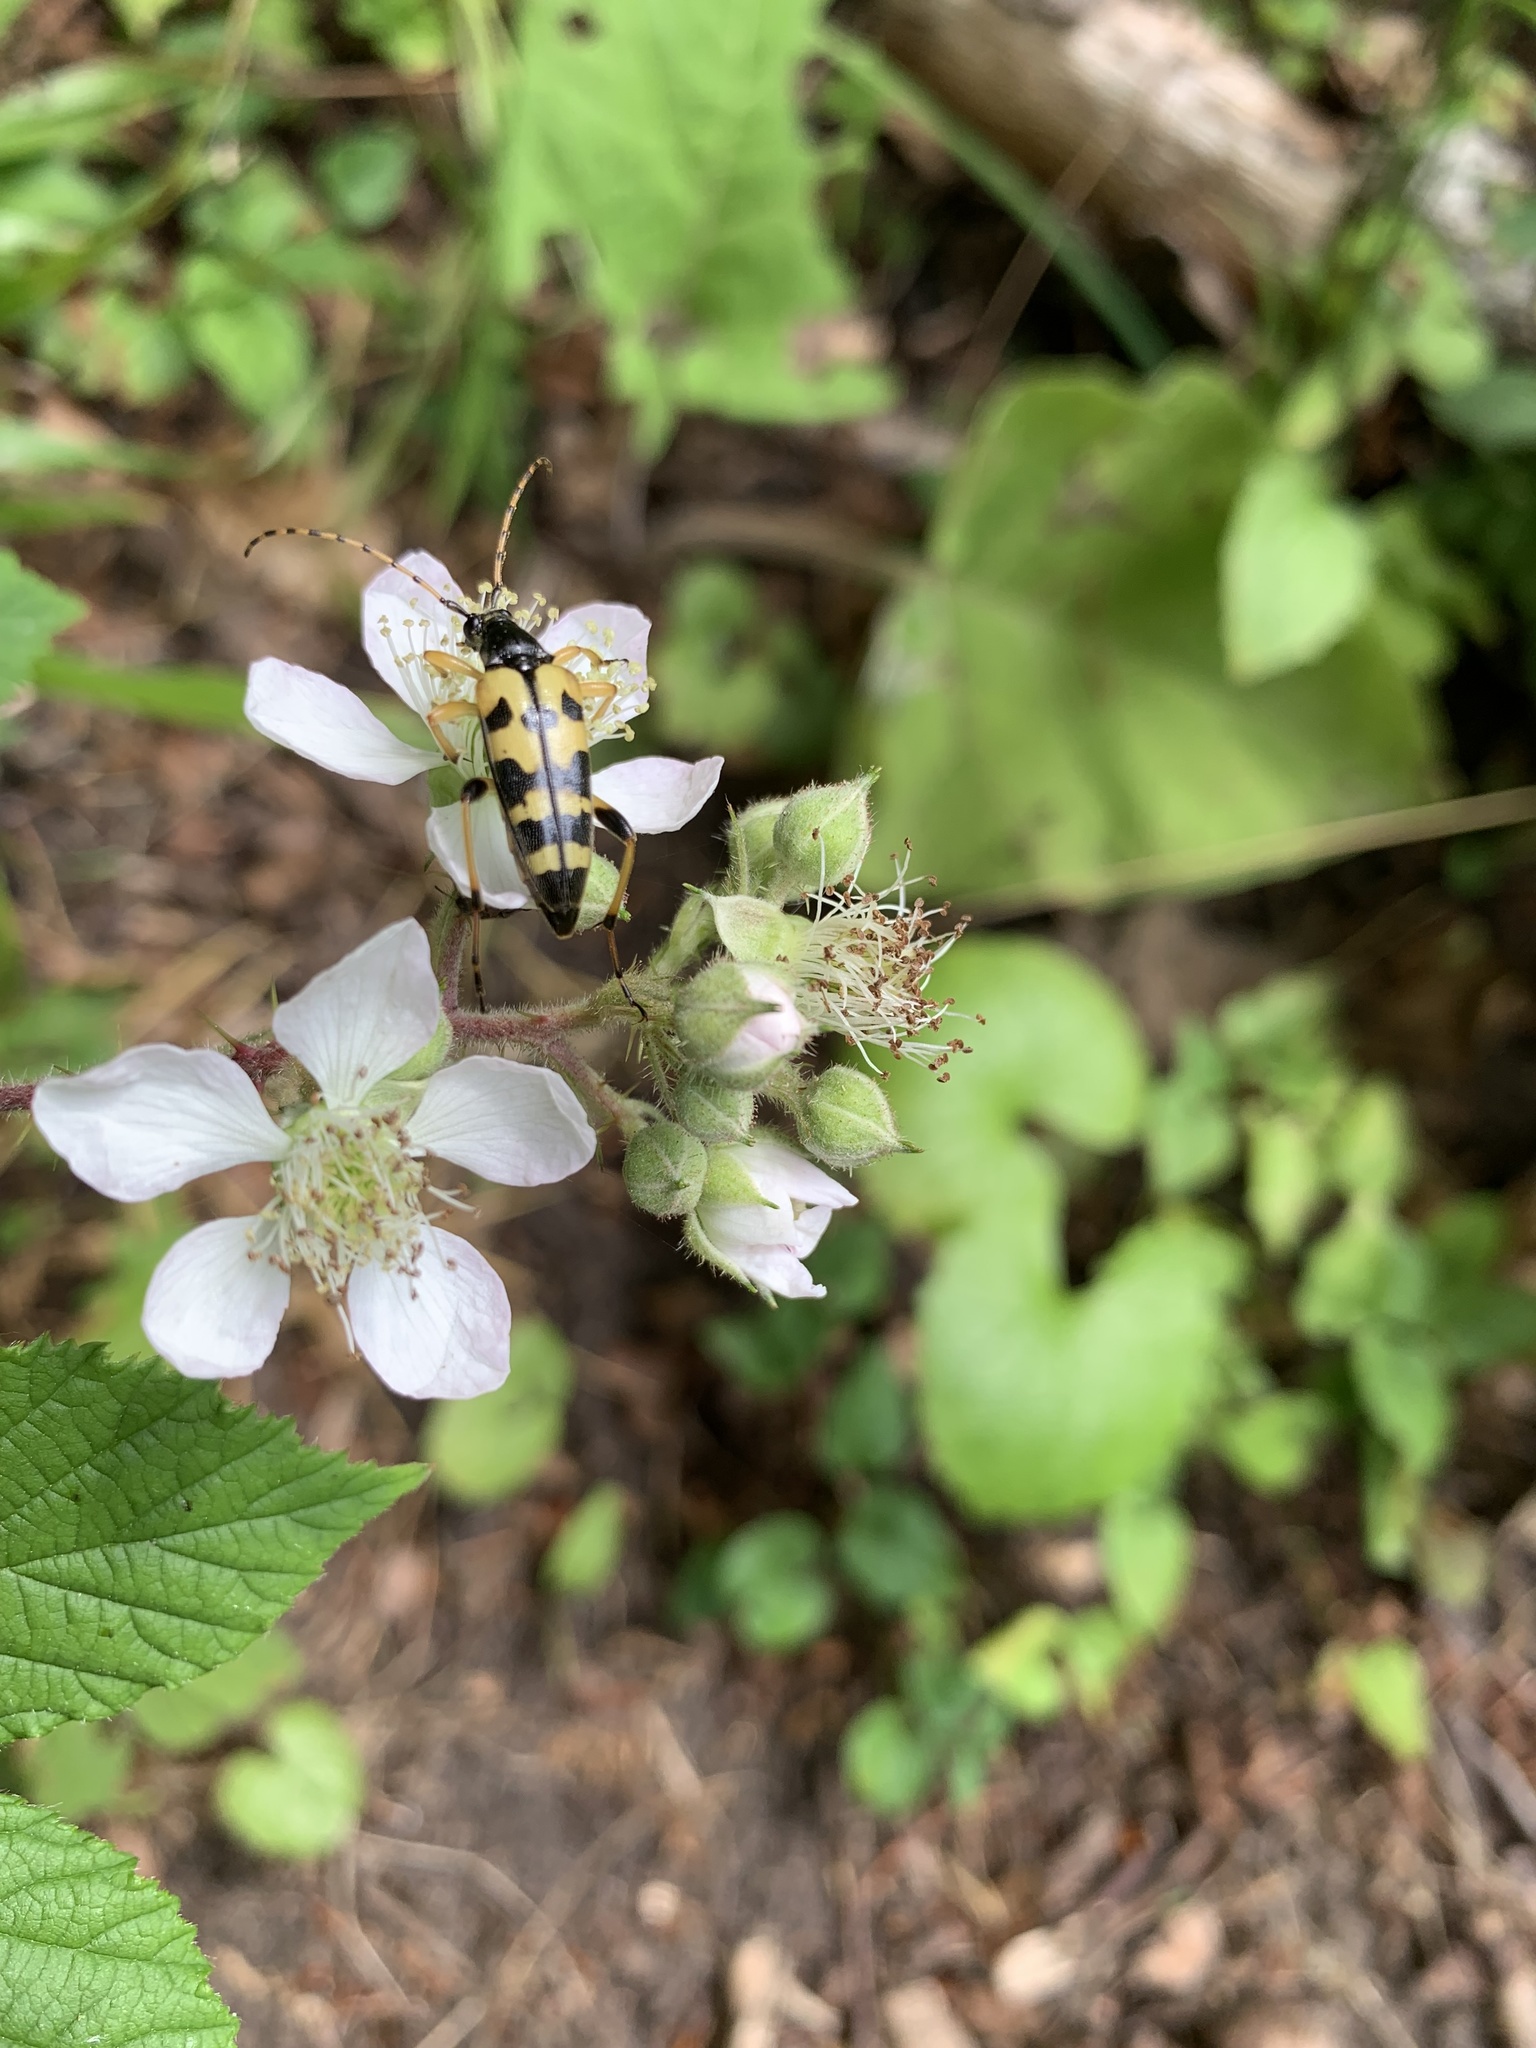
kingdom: Animalia
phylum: Arthropoda
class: Insecta
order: Coleoptera
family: Cerambycidae
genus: Rutpela
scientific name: Rutpela maculata
